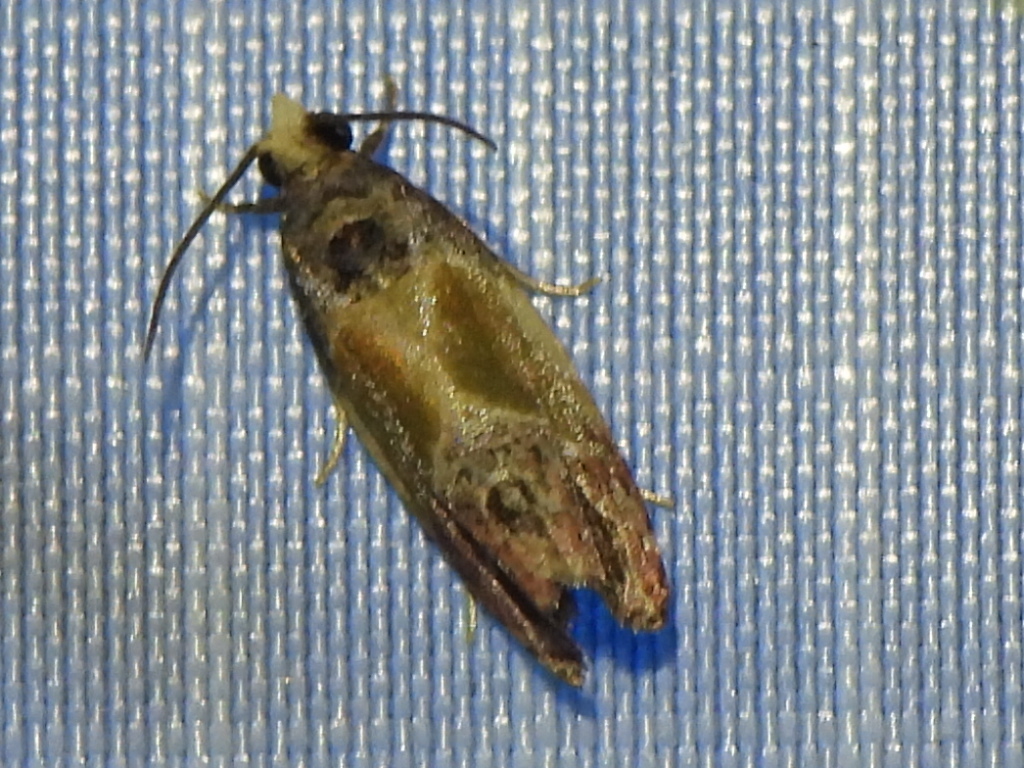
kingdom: Animalia
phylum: Arthropoda
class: Insecta
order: Lepidoptera
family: Tortricidae
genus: Eumarozia
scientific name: Eumarozia malachitana
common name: Sculptured moth
